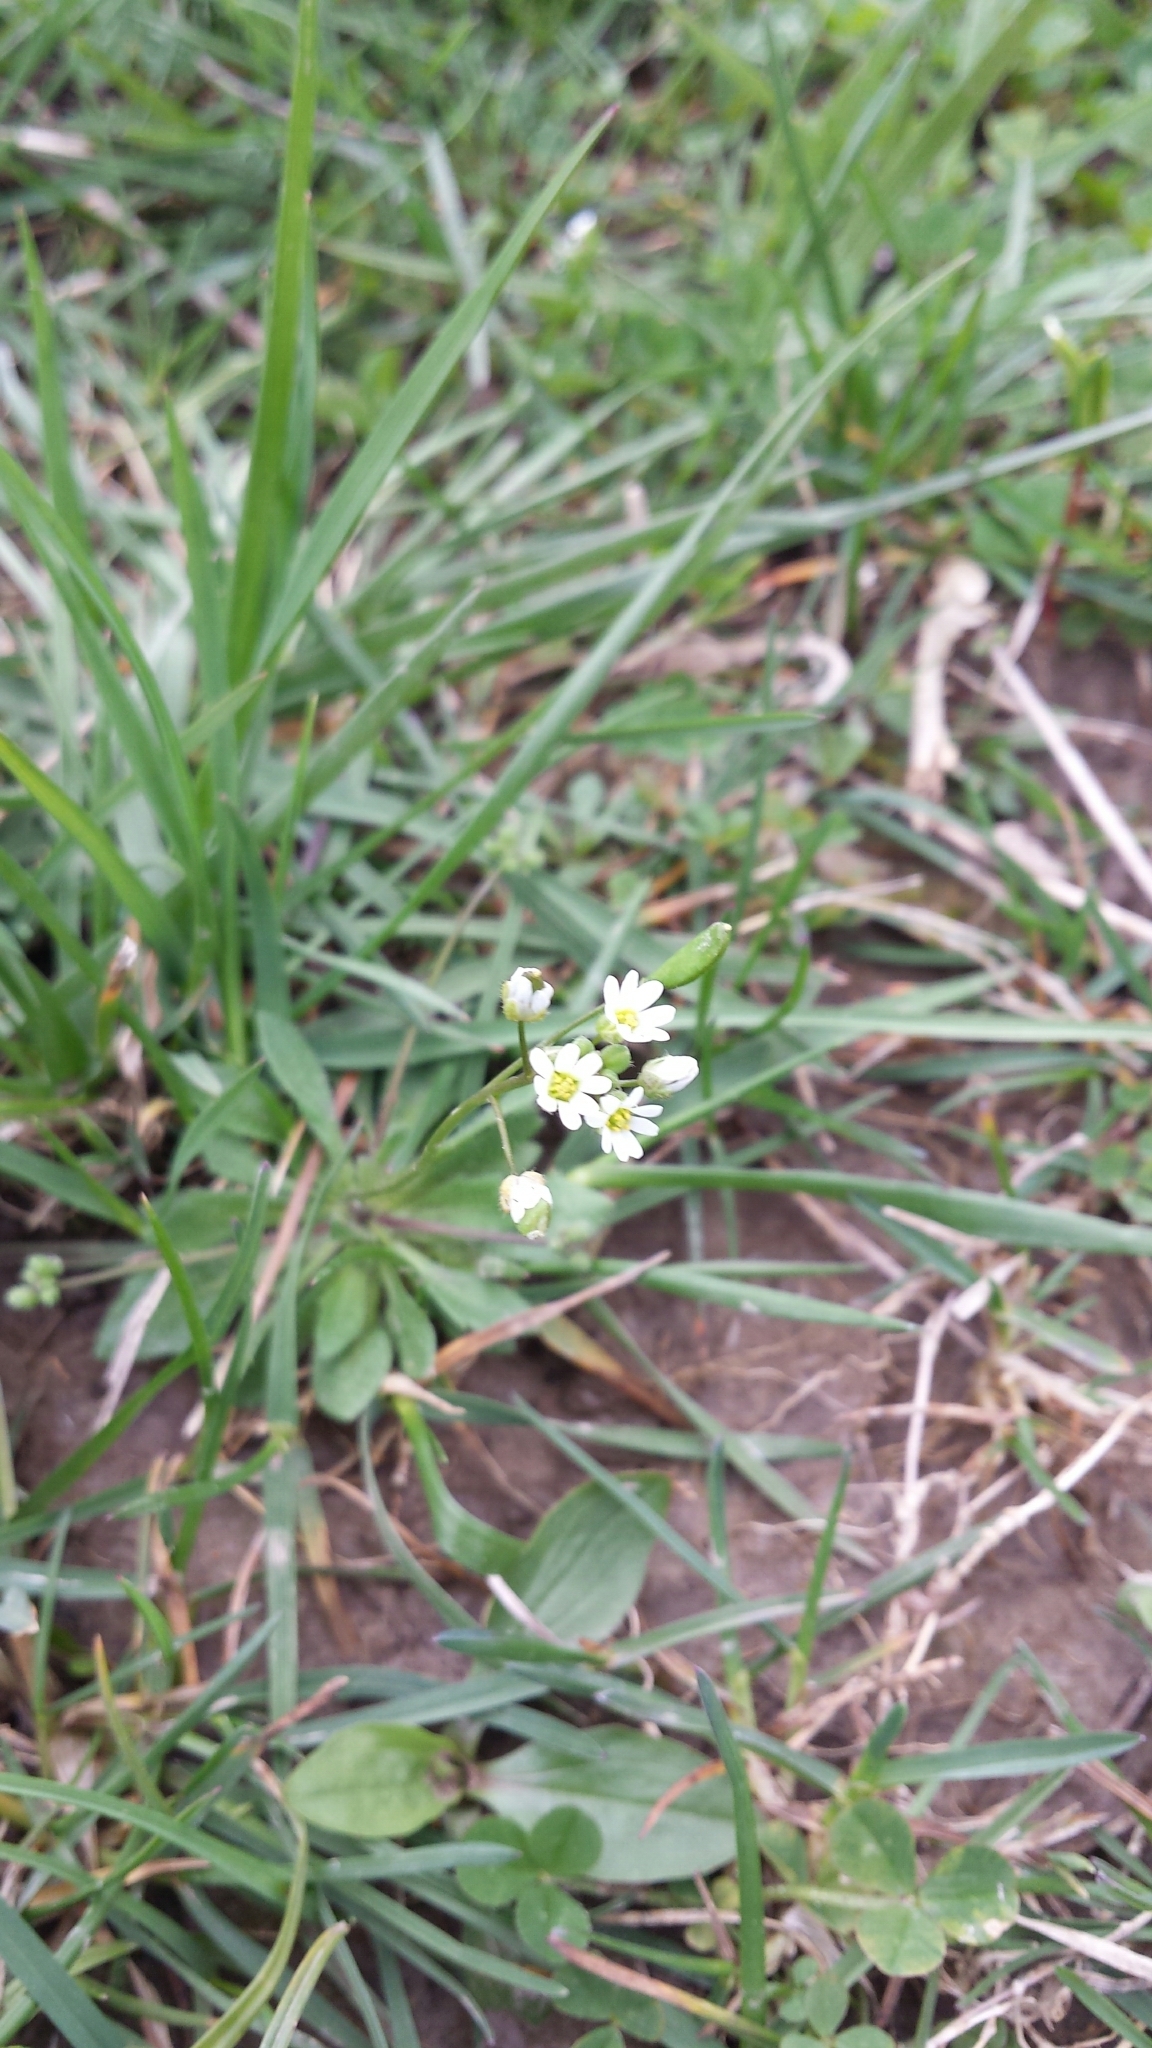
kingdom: Plantae
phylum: Tracheophyta
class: Magnoliopsida
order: Brassicales
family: Brassicaceae
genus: Draba
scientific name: Draba verna
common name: Spring draba
